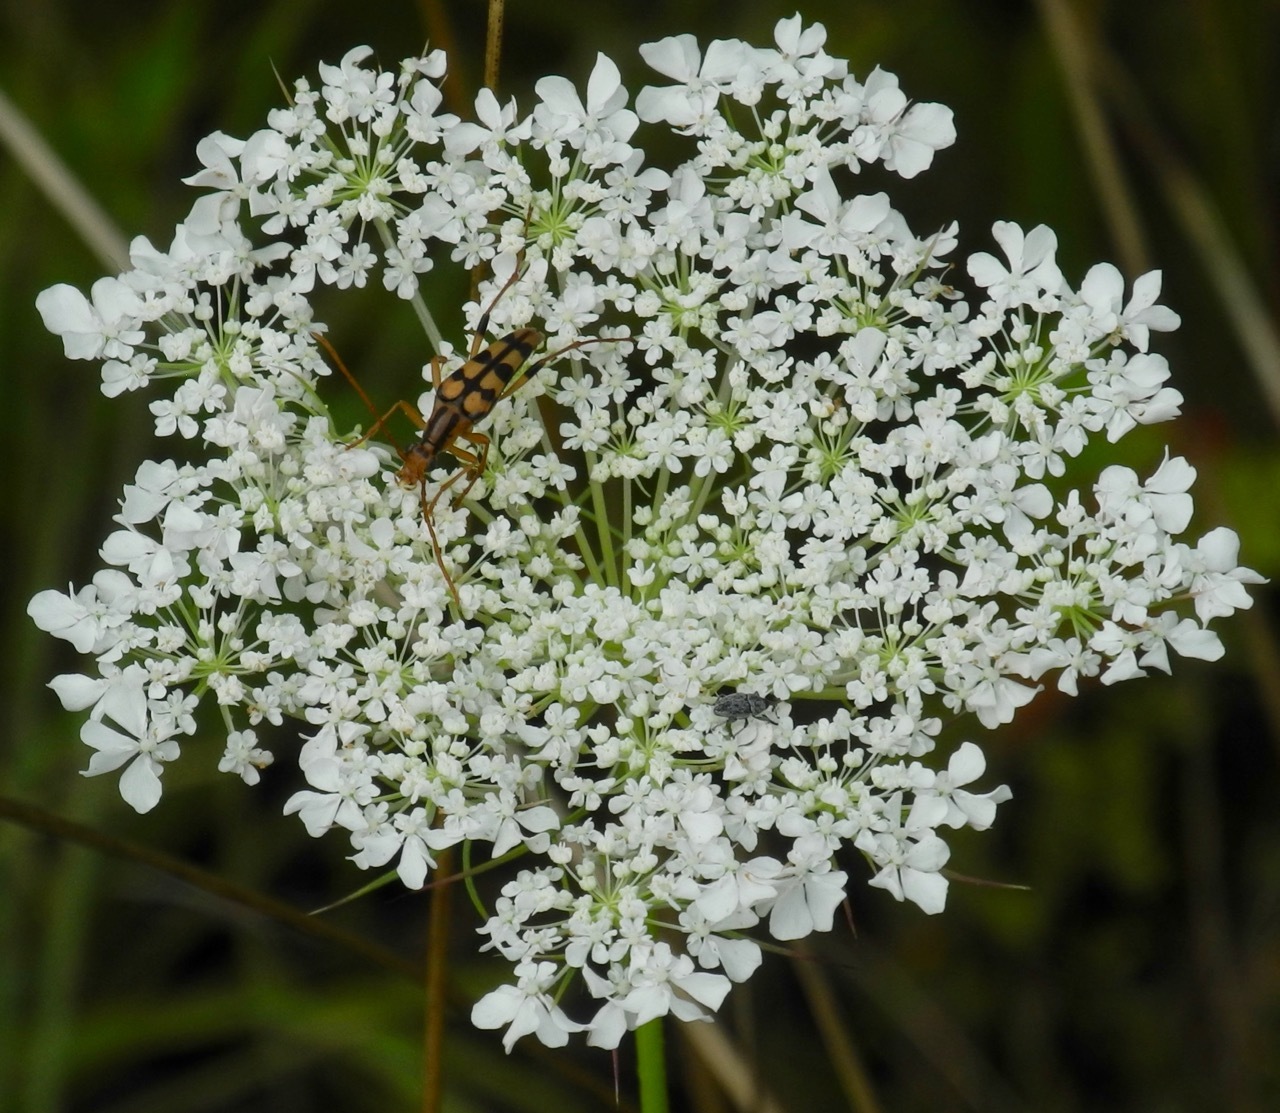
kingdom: Animalia
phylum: Arthropoda
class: Insecta
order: Coleoptera
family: Cerambycidae
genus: Strangalia
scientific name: Strangalia luteicornis
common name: Yellow-horned flower longhorn beetle
